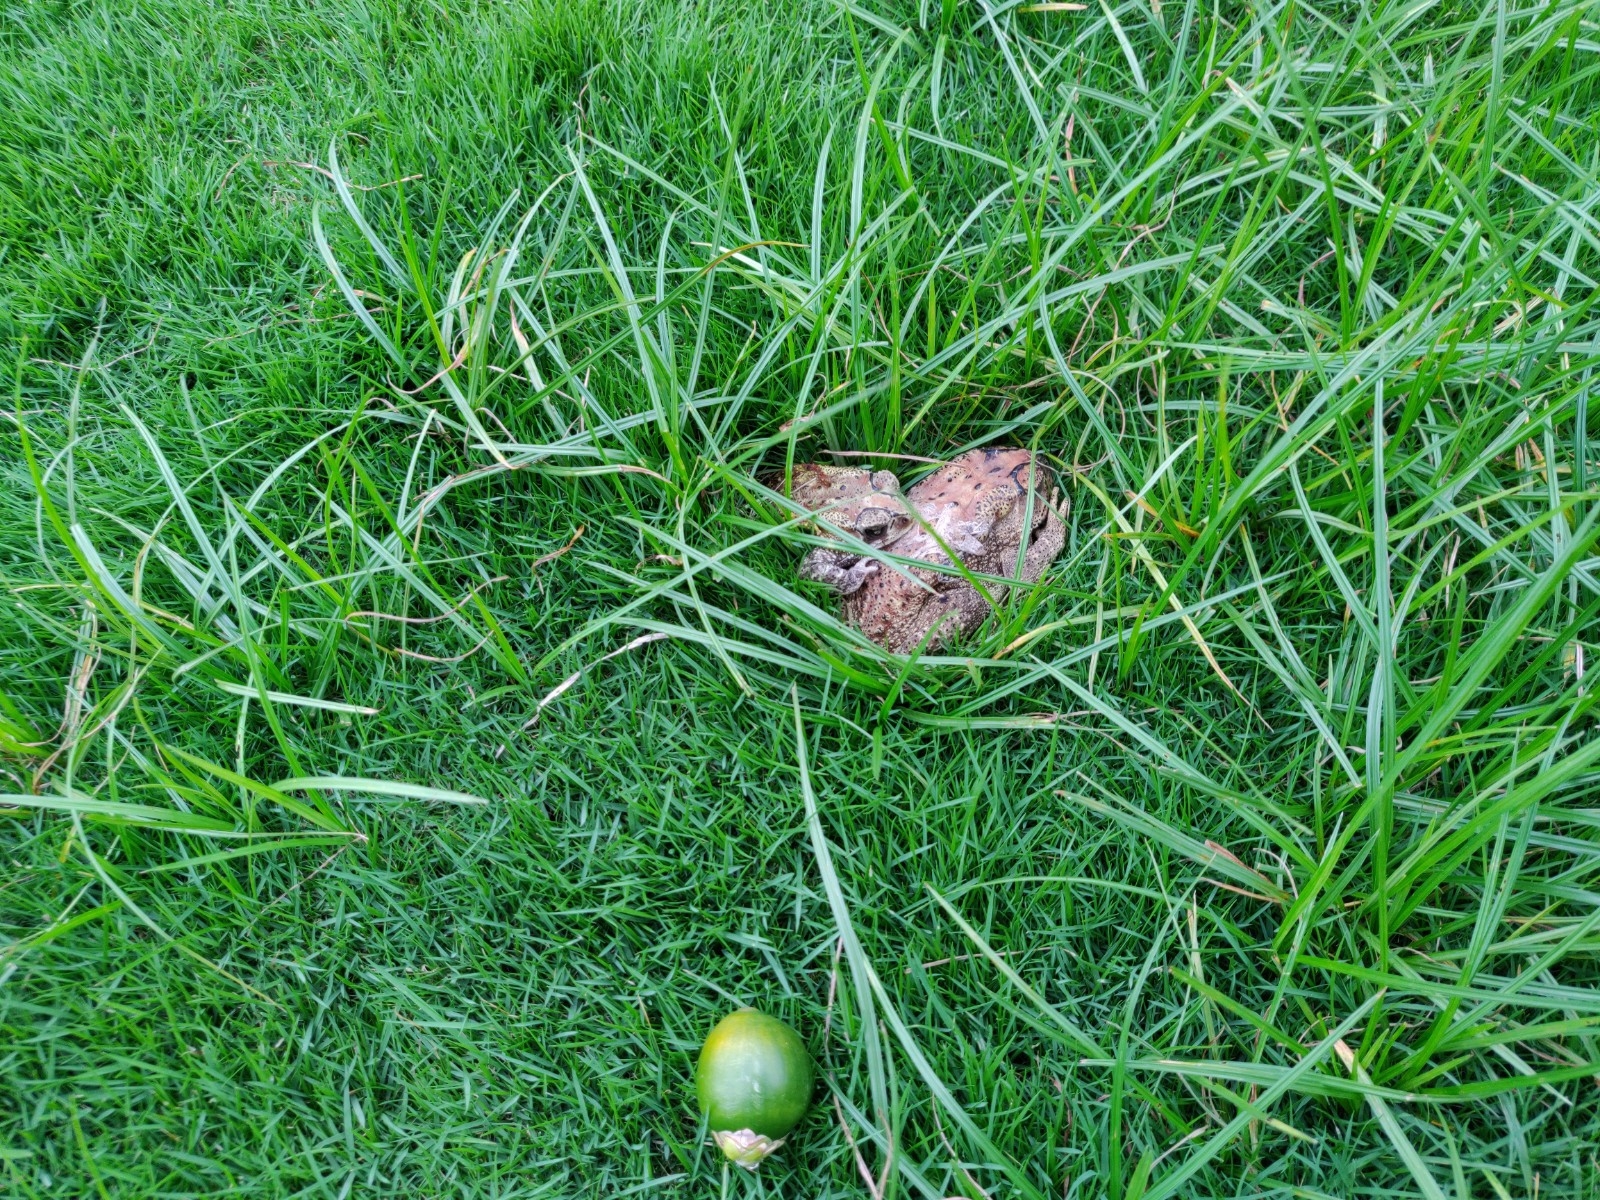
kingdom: Animalia
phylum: Chordata
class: Amphibia
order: Anura
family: Bufonidae
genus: Duttaphrynus
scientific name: Duttaphrynus melanostictus
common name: Common sunda toad
